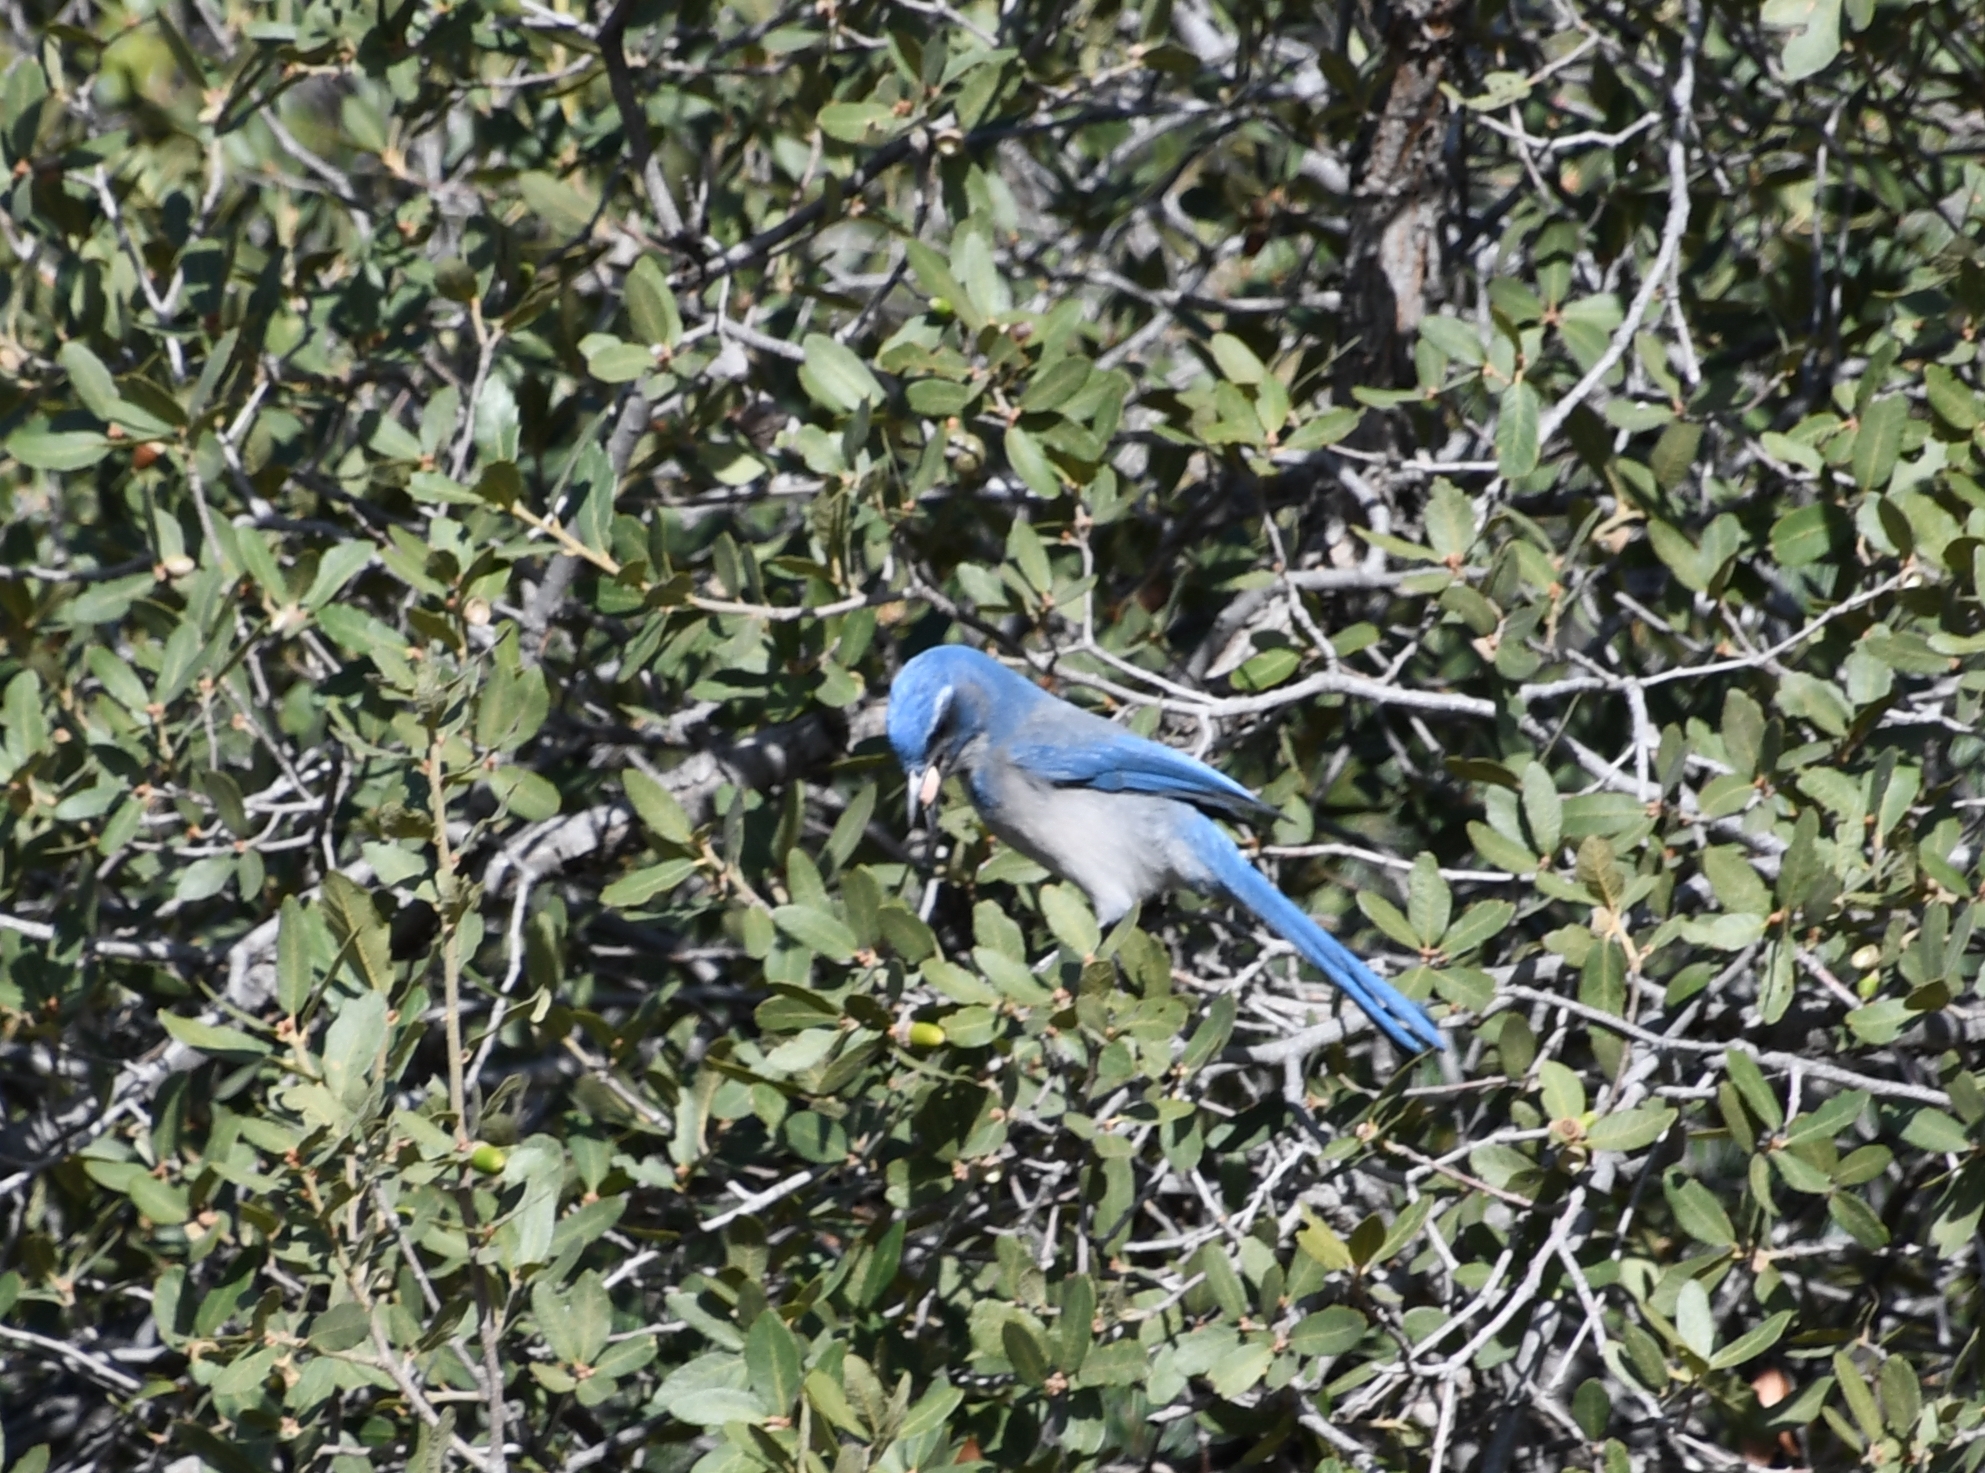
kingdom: Animalia
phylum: Chordata
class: Aves
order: Passeriformes
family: Corvidae
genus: Aphelocoma
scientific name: Aphelocoma woodhouseii
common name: Woodhouse's scrub-jay
